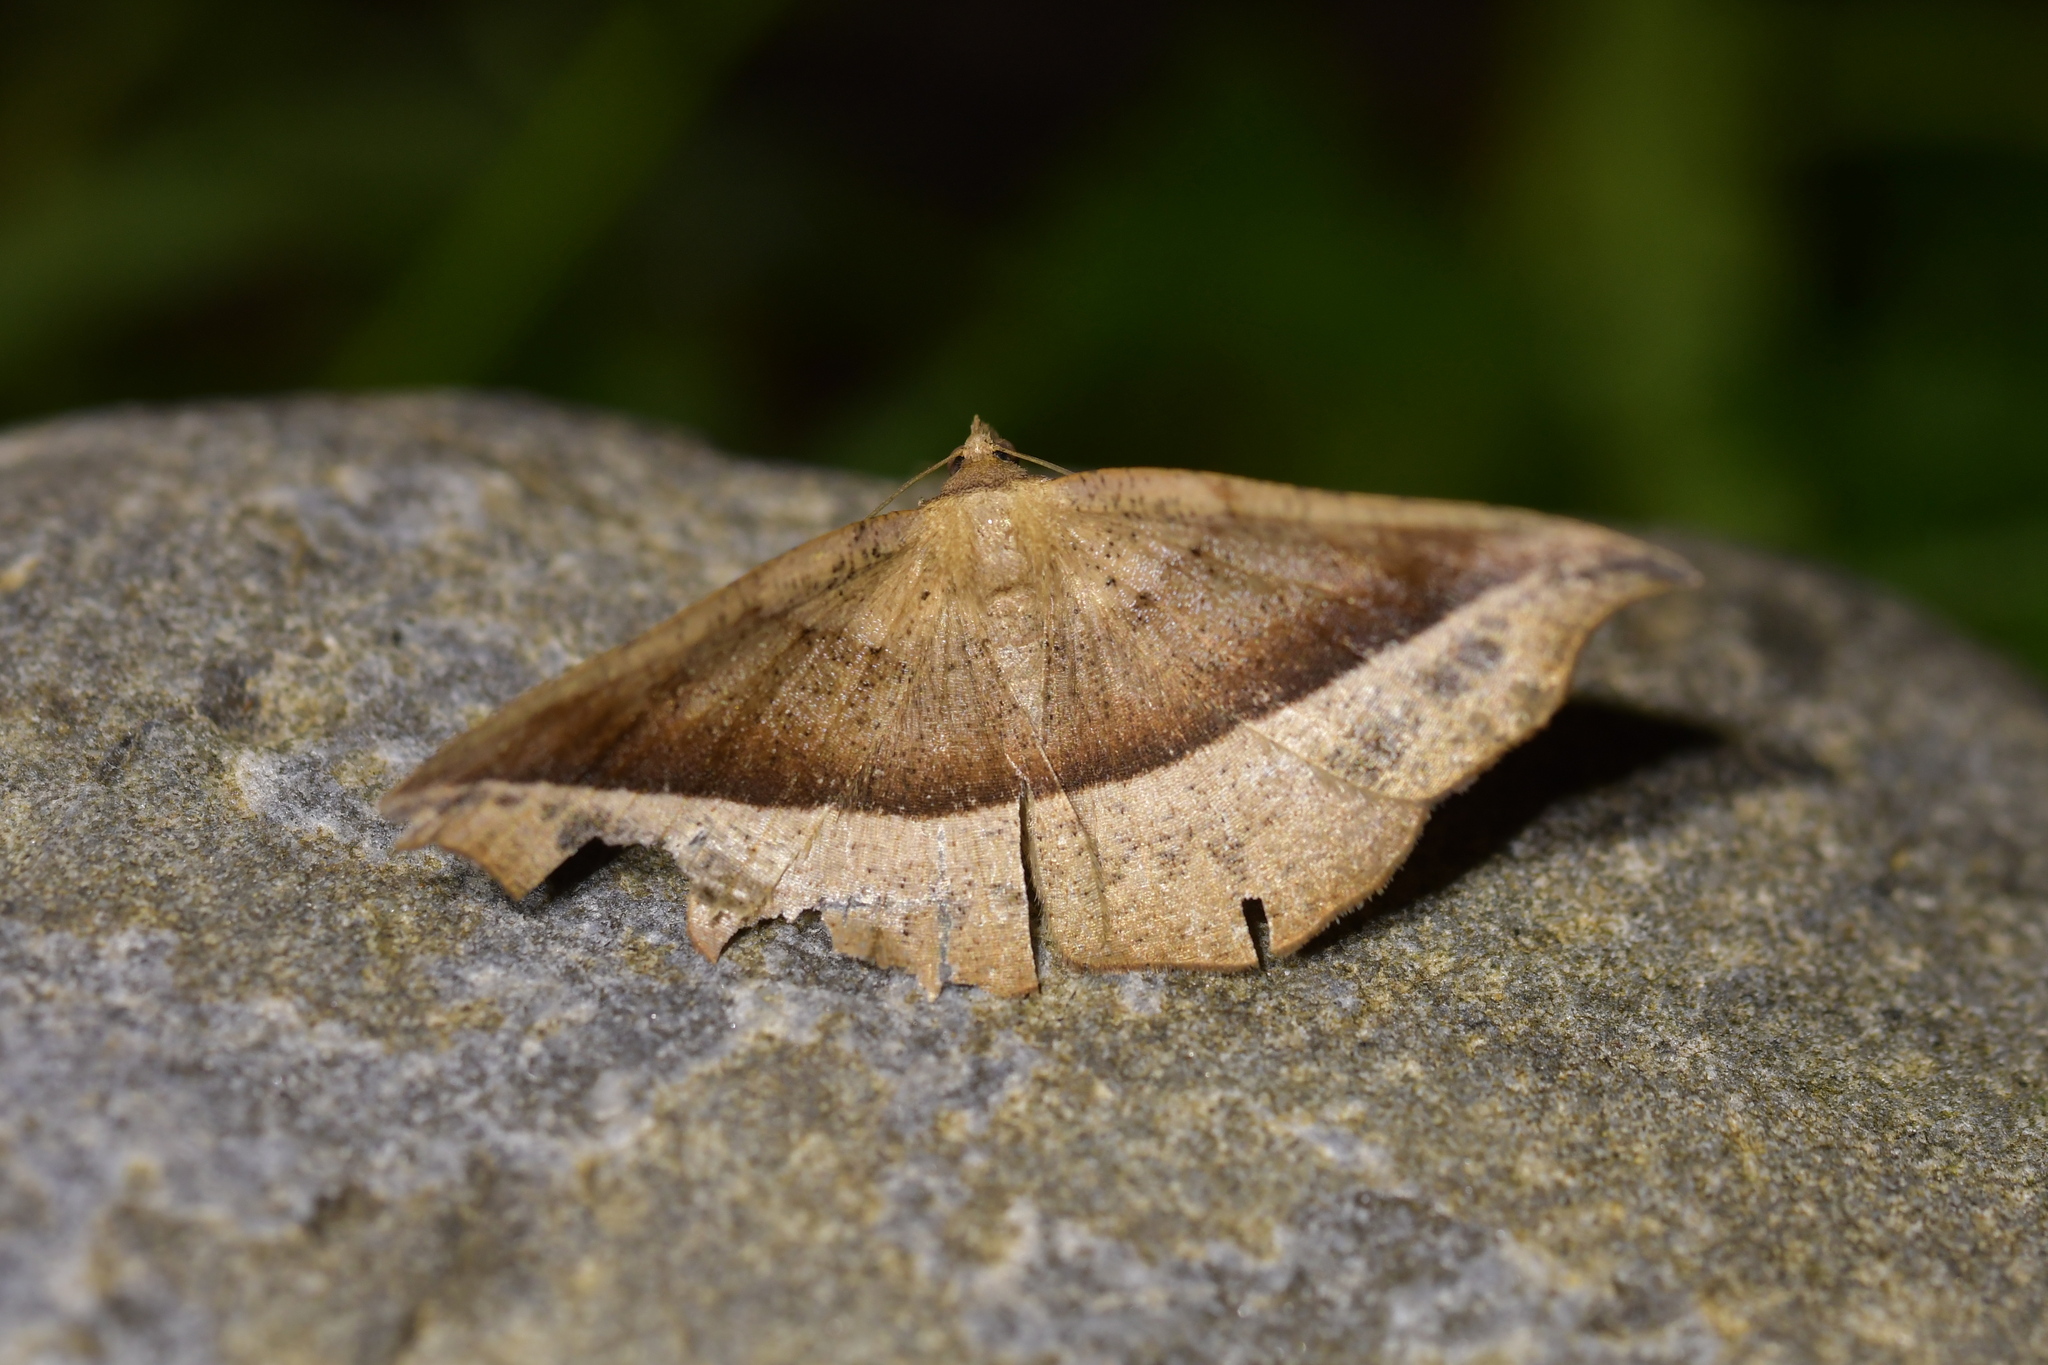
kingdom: Animalia
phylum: Arthropoda
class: Insecta
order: Lepidoptera
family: Geometridae
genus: Sarisa
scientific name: Sarisa muriferata
